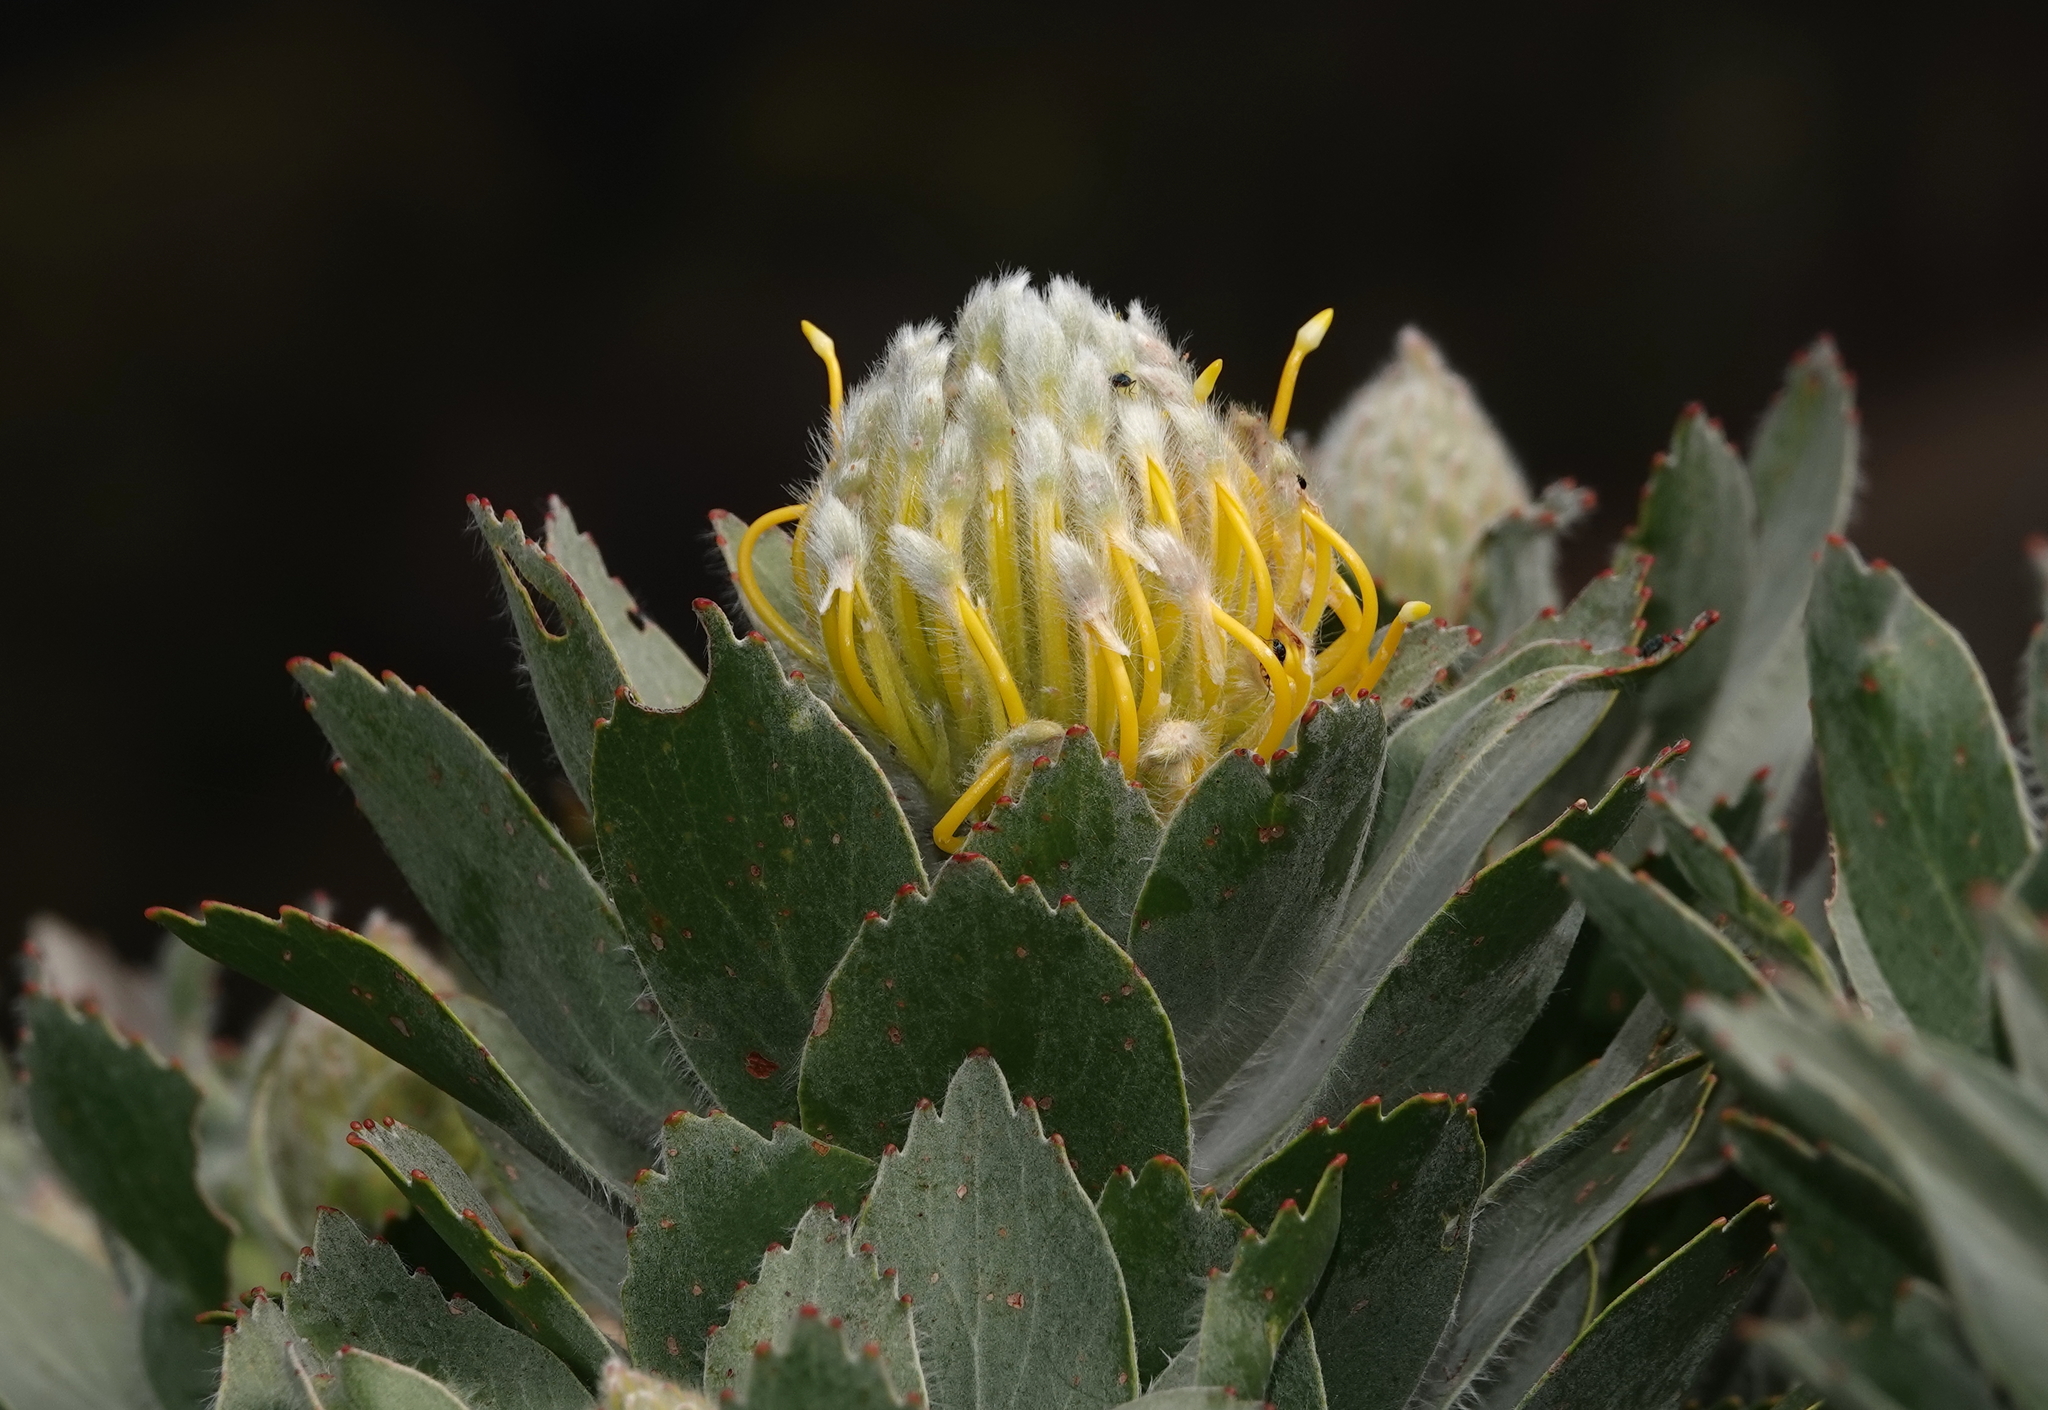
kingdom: Plantae
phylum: Tracheophyta
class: Magnoliopsida
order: Proteales
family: Proteaceae
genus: Leucospermum
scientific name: Leucospermum conocarpodendron
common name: Tree pincushion
